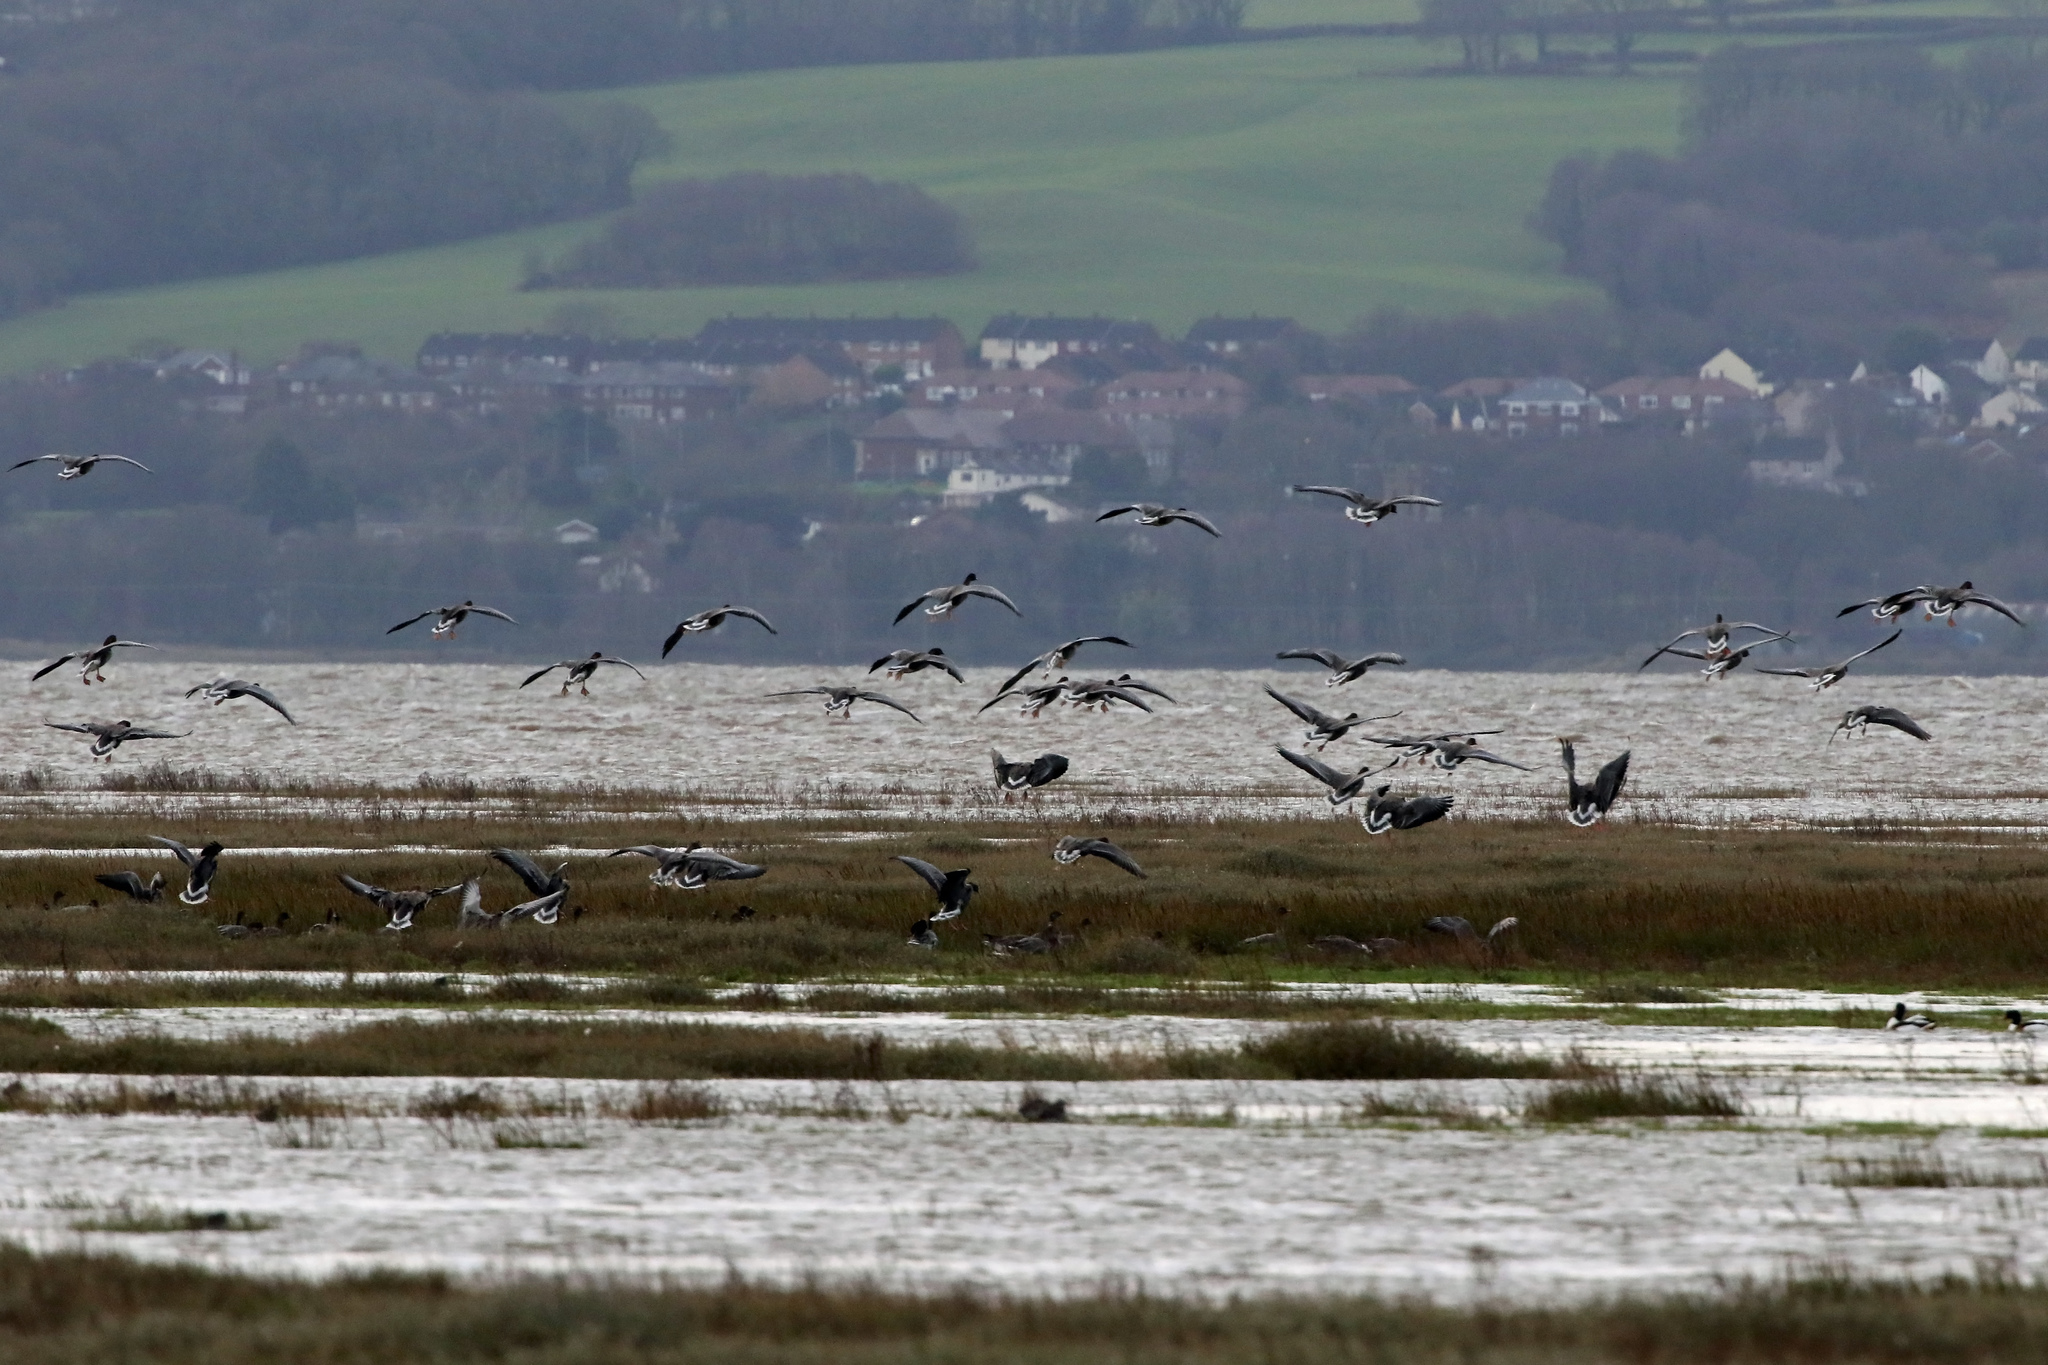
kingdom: Animalia
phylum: Chordata
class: Aves
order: Anseriformes
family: Anatidae
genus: Anser
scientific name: Anser brachyrhynchus
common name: Pink-footed goose
